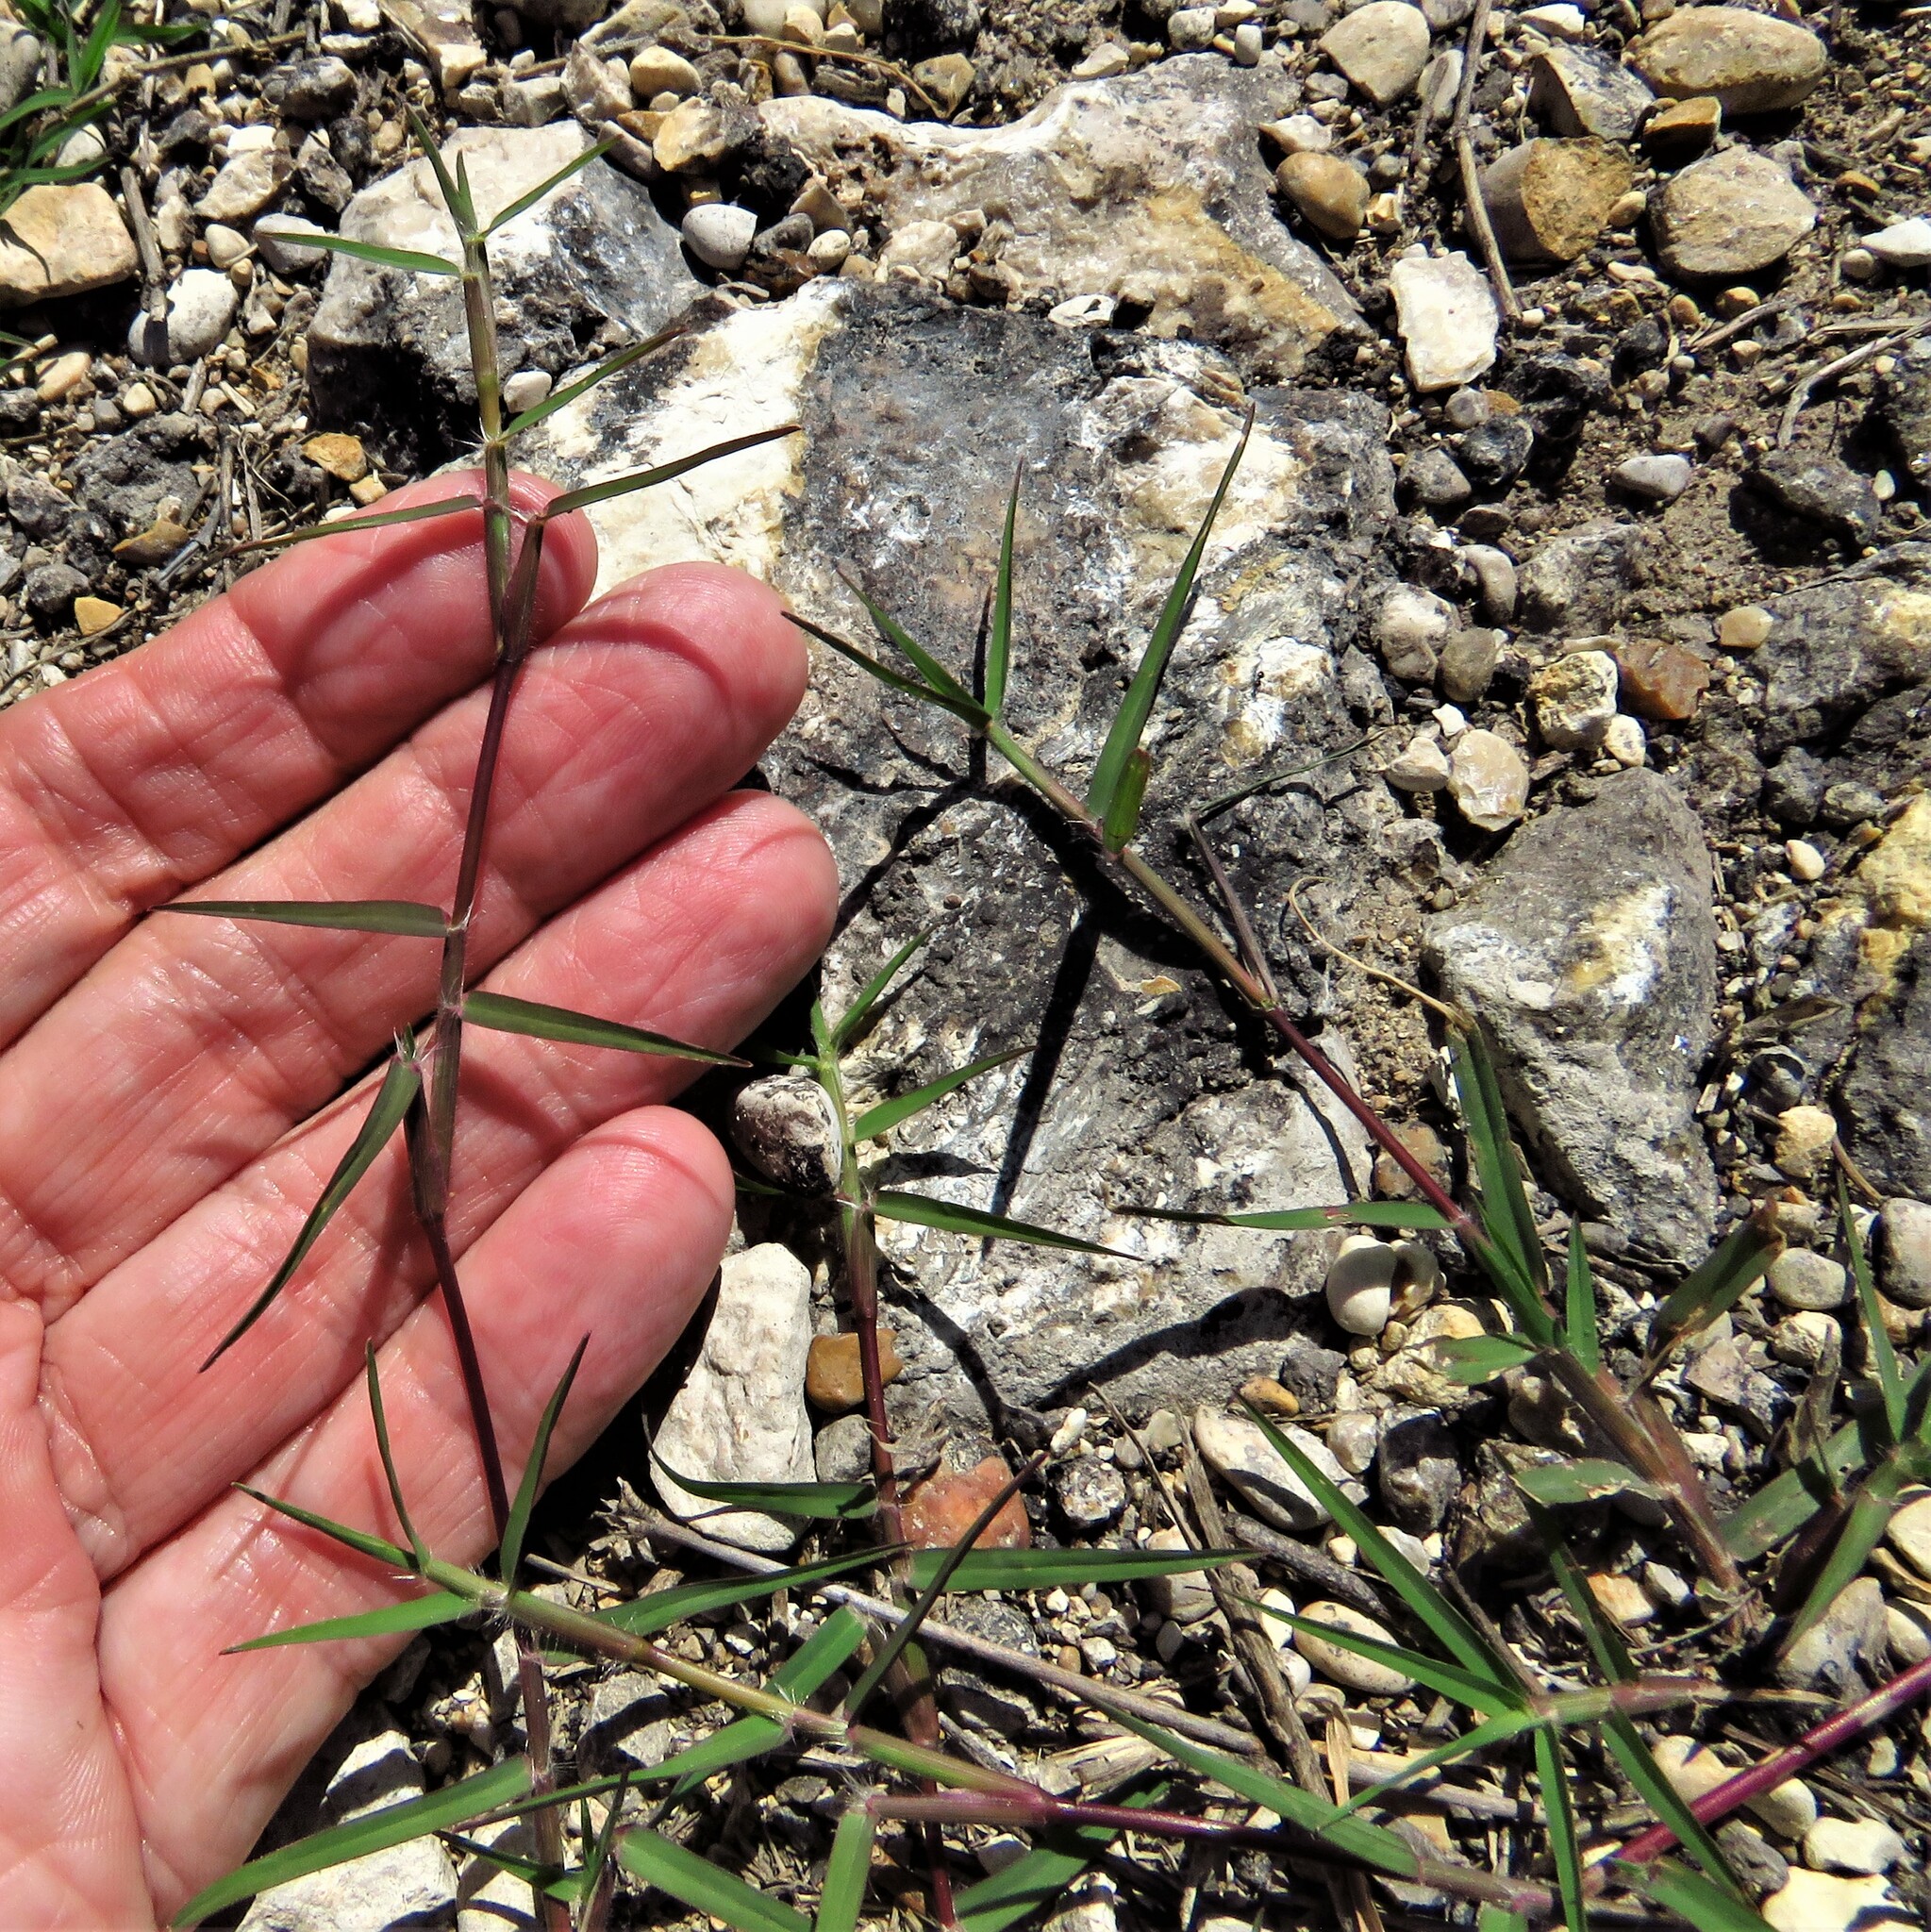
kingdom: Plantae
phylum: Tracheophyta
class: Liliopsida
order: Poales
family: Poaceae
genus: Cynodon
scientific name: Cynodon dactylon
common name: Bermuda grass
